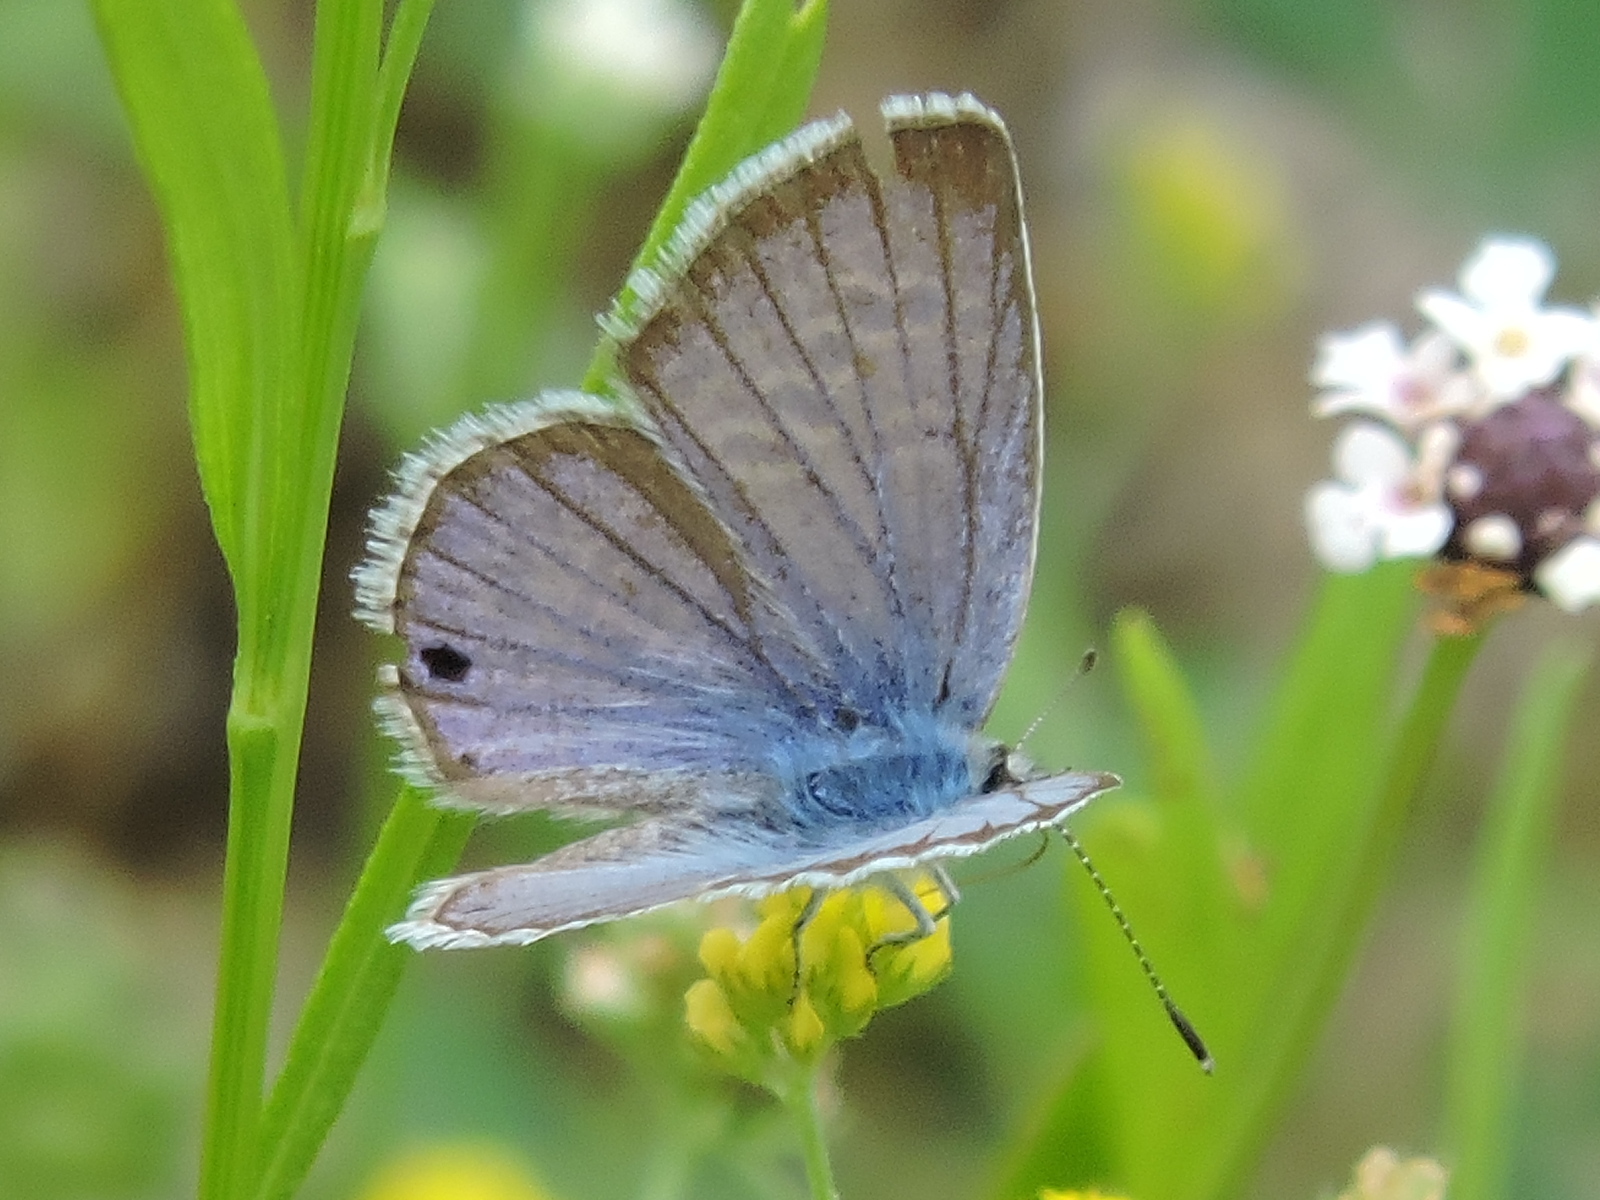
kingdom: Animalia
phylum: Arthropoda
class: Insecta
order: Lepidoptera
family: Lycaenidae
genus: Echinargus
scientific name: Echinargus isola
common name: Reakirt's blue
